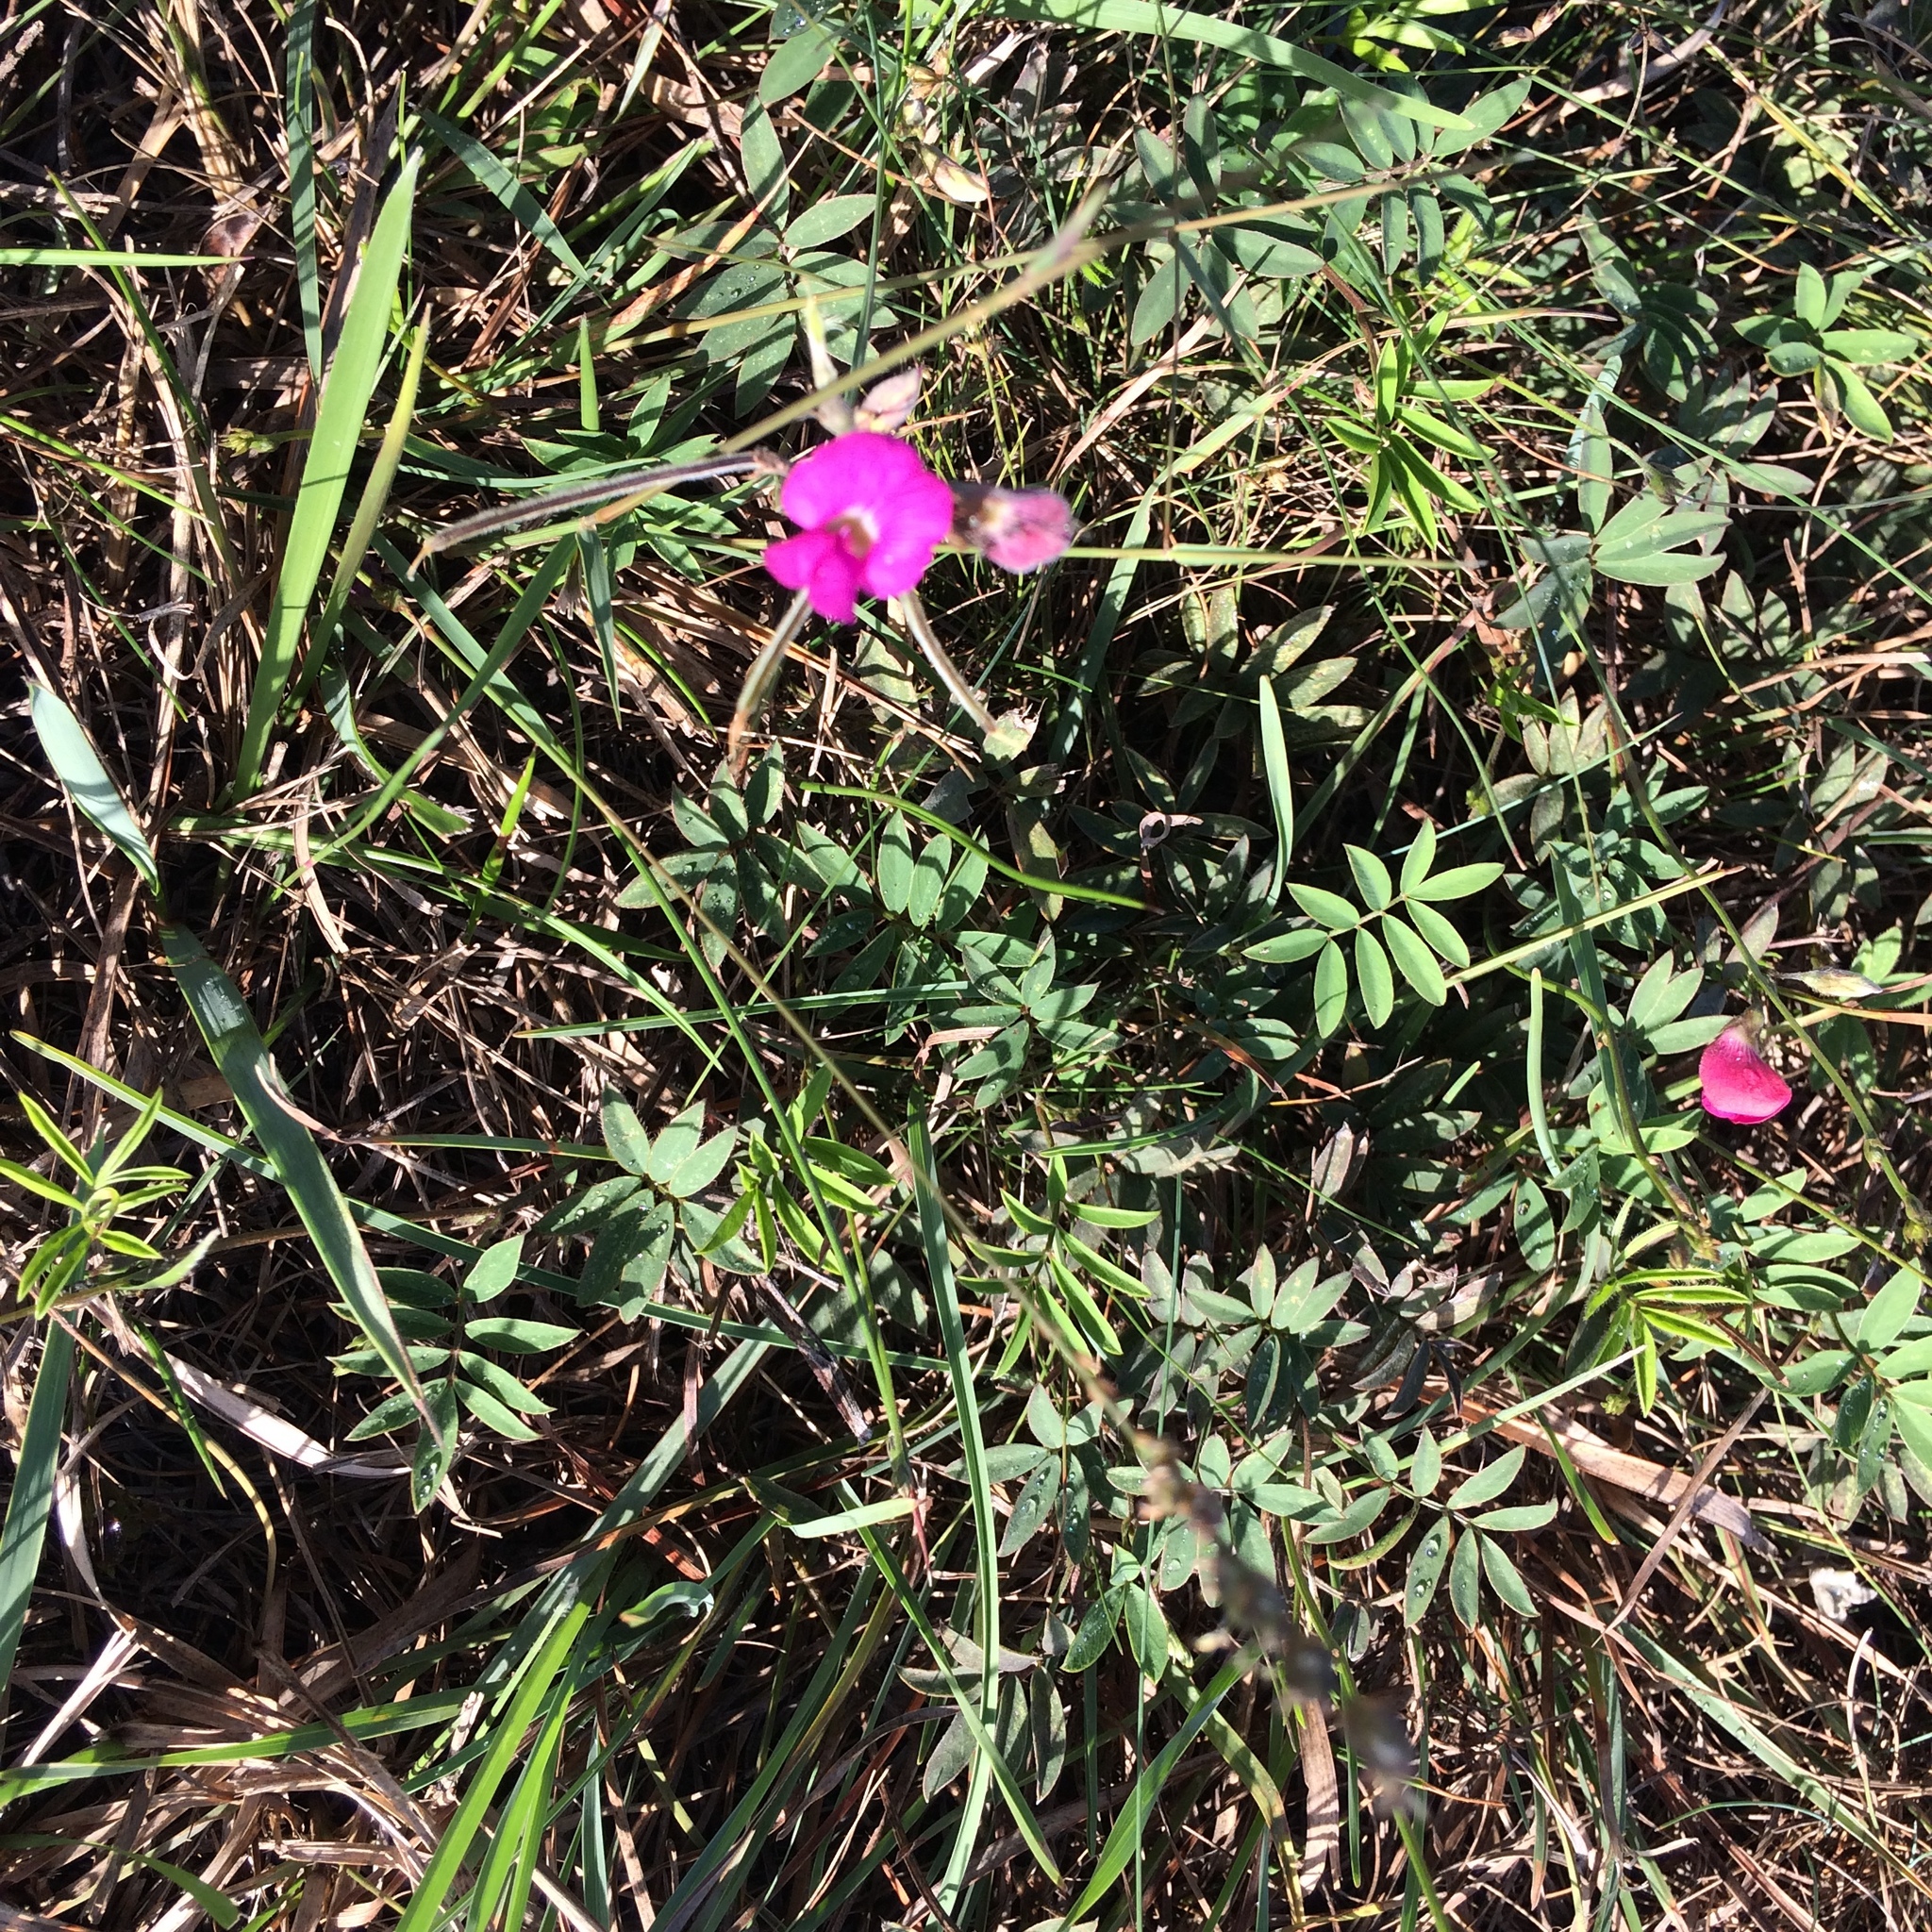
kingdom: Plantae
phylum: Tracheophyta
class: Magnoliopsida
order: Fabales
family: Fabaceae
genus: Tephrosia
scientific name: Tephrosia capensis
